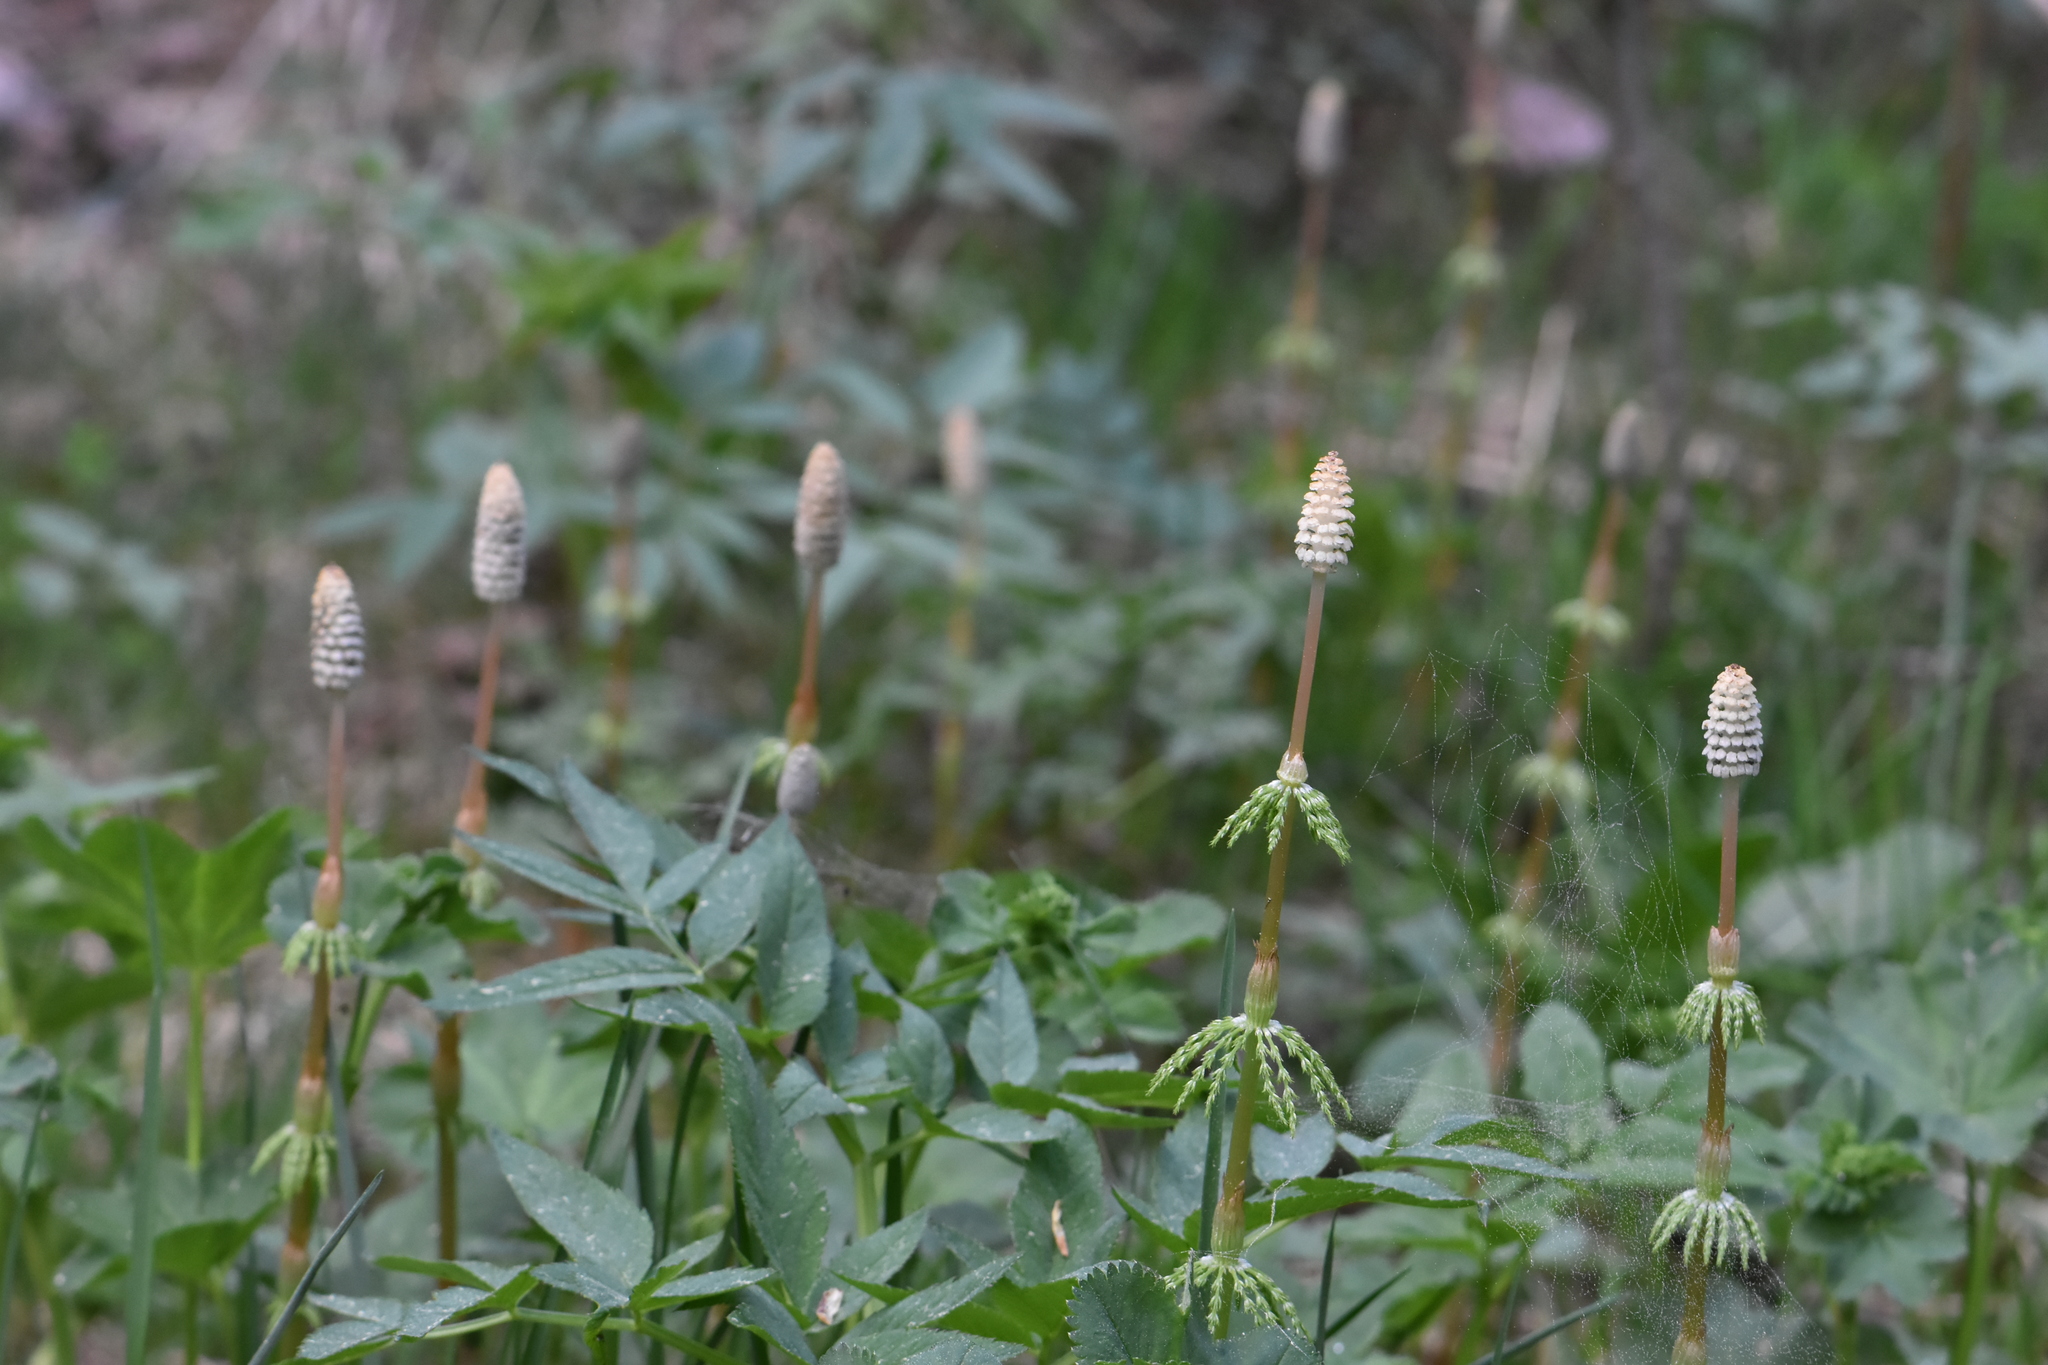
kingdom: Plantae
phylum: Tracheophyta
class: Polypodiopsida
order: Equisetales
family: Equisetaceae
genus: Equisetum
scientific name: Equisetum sylvaticum
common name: Wood horsetail
